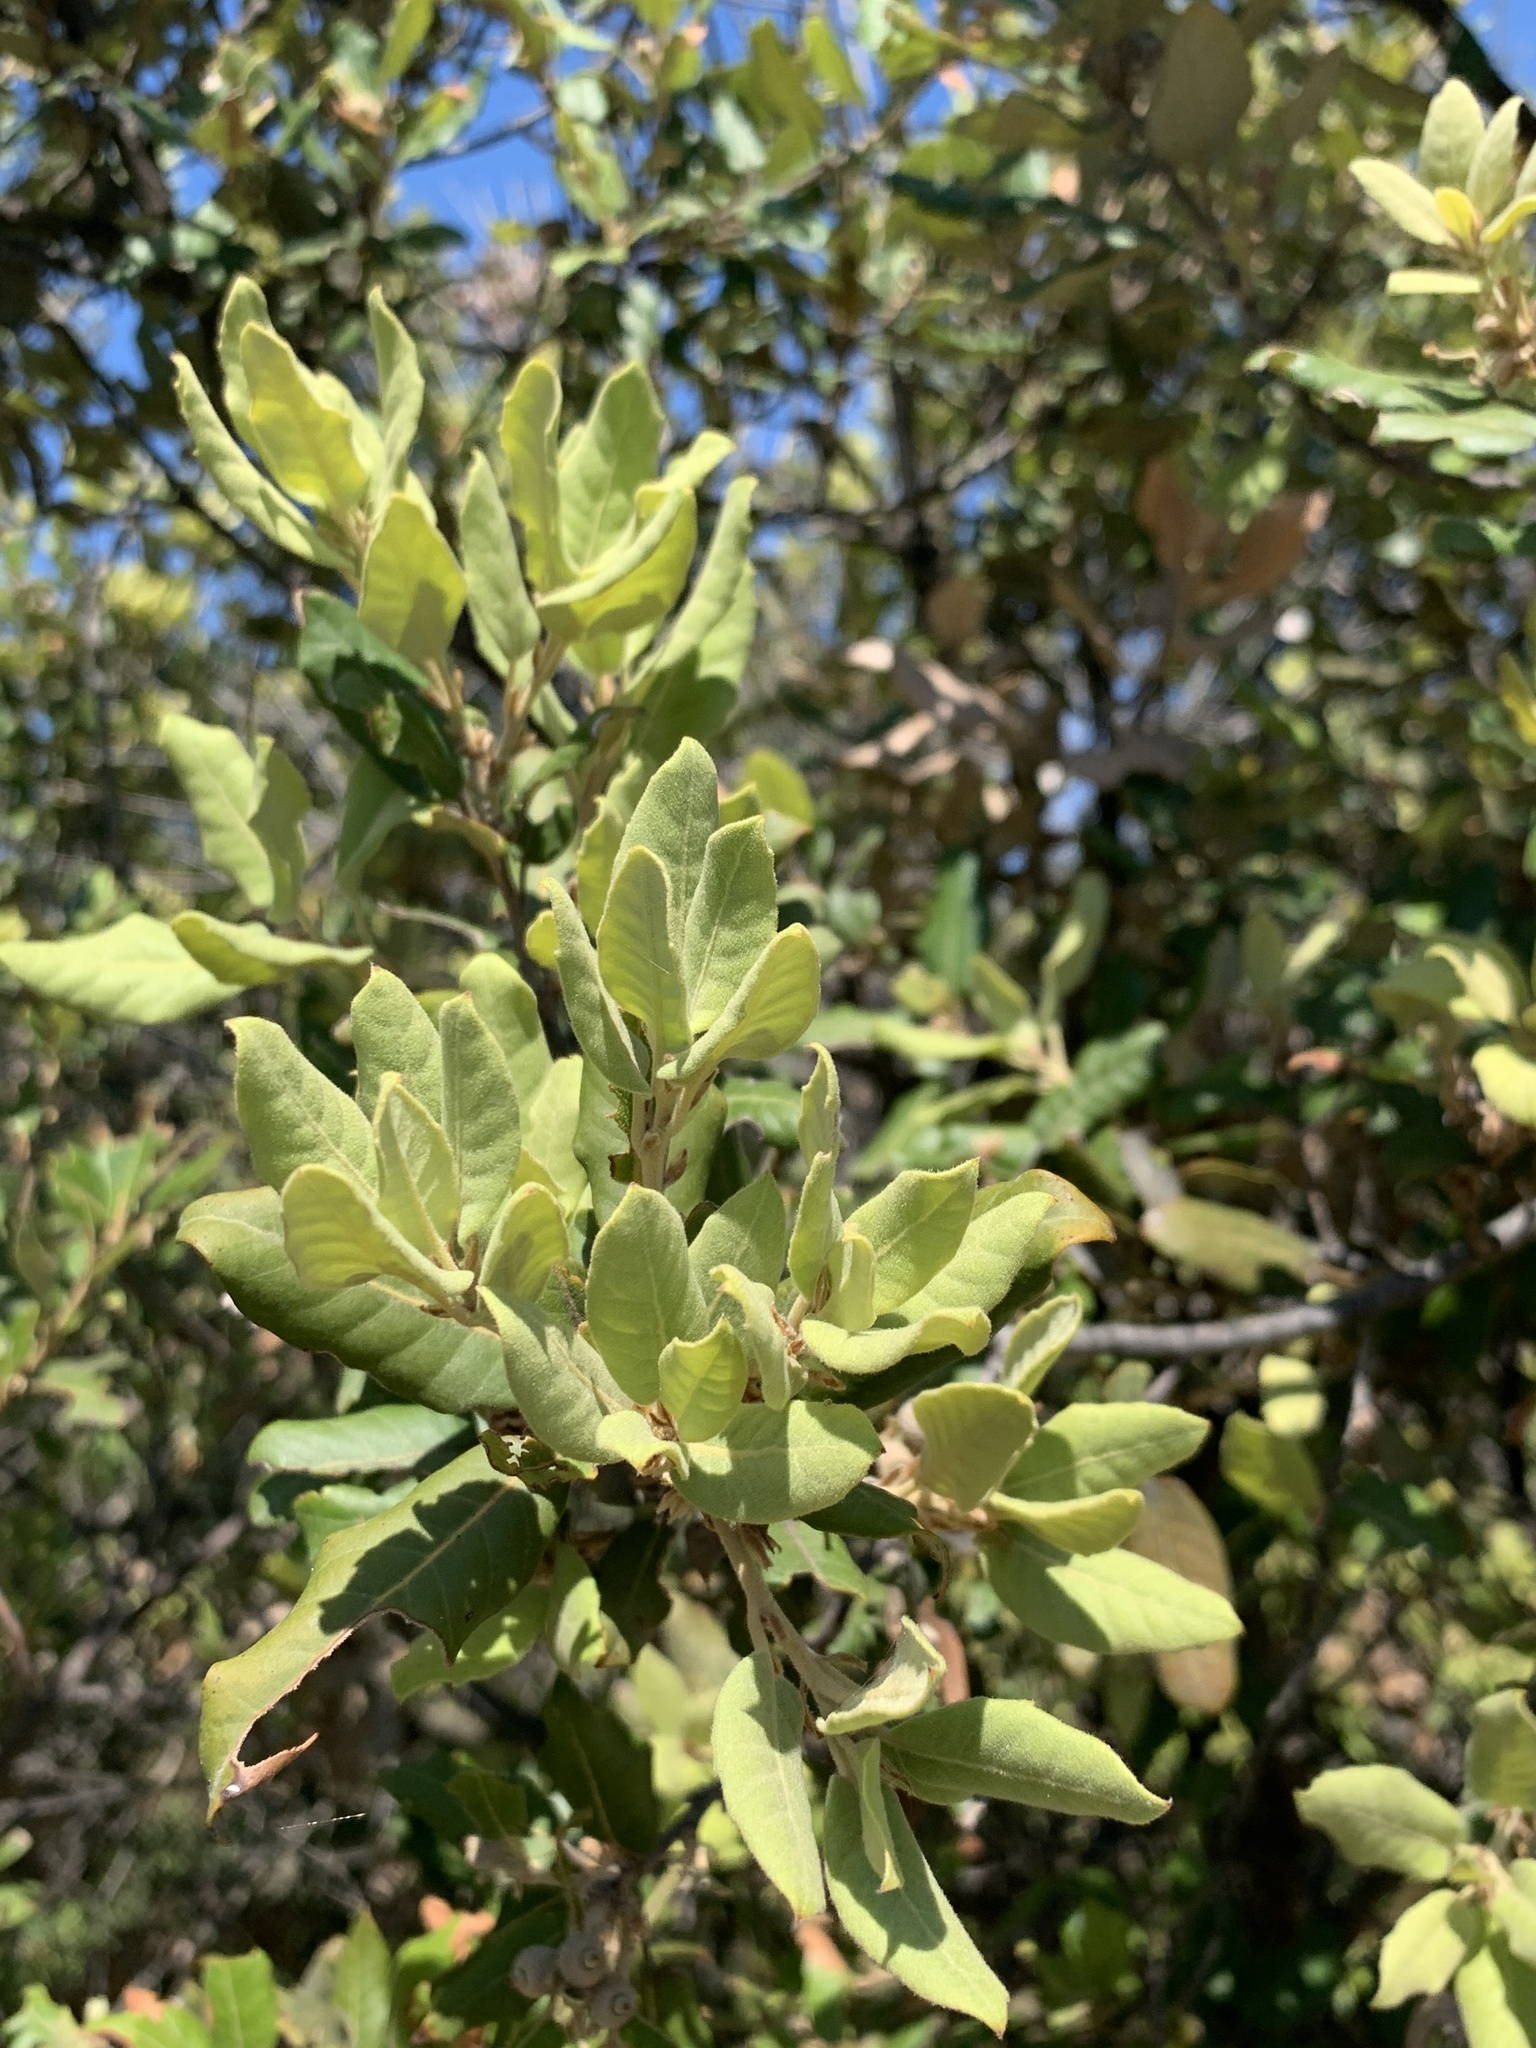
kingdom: Plantae
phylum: Tracheophyta
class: Magnoliopsida
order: Fagales
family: Fagaceae
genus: Quercus
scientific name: Quercus ilex
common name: Evergreen oak
